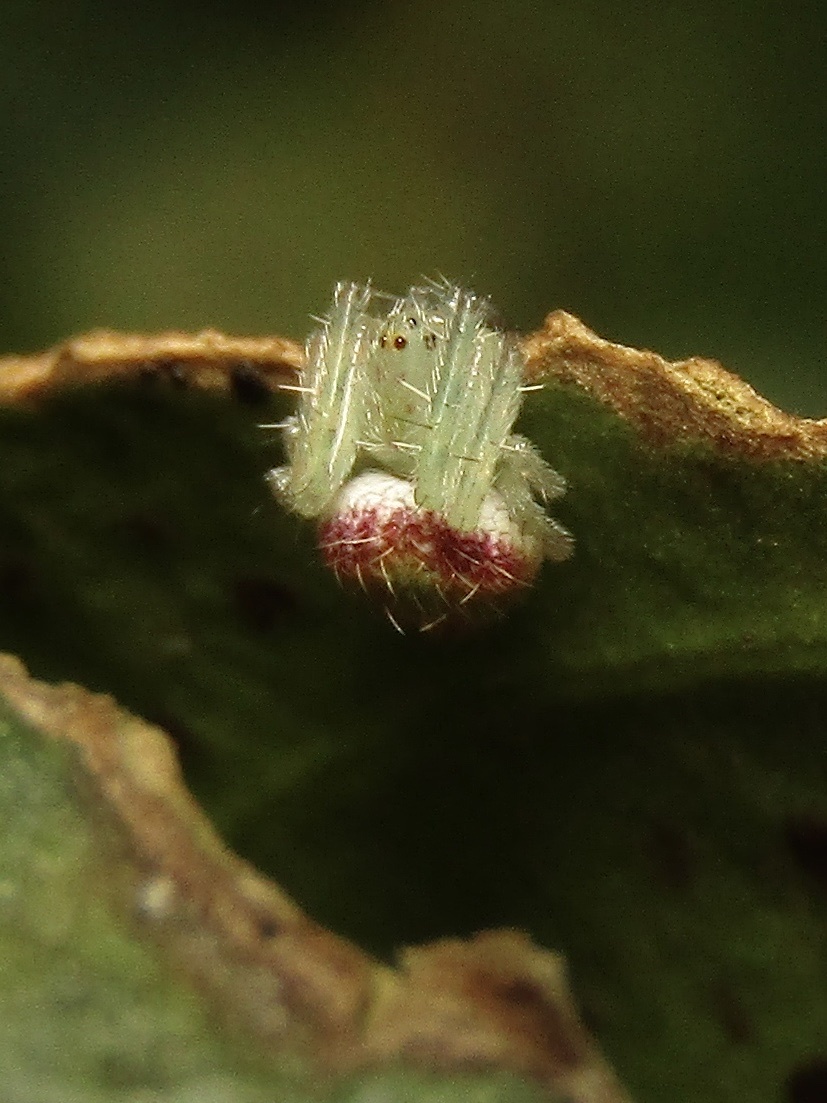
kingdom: Animalia
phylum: Arthropoda
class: Arachnida
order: Araneae
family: Araneidae
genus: Araneus
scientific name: Araneus circulissparsus
